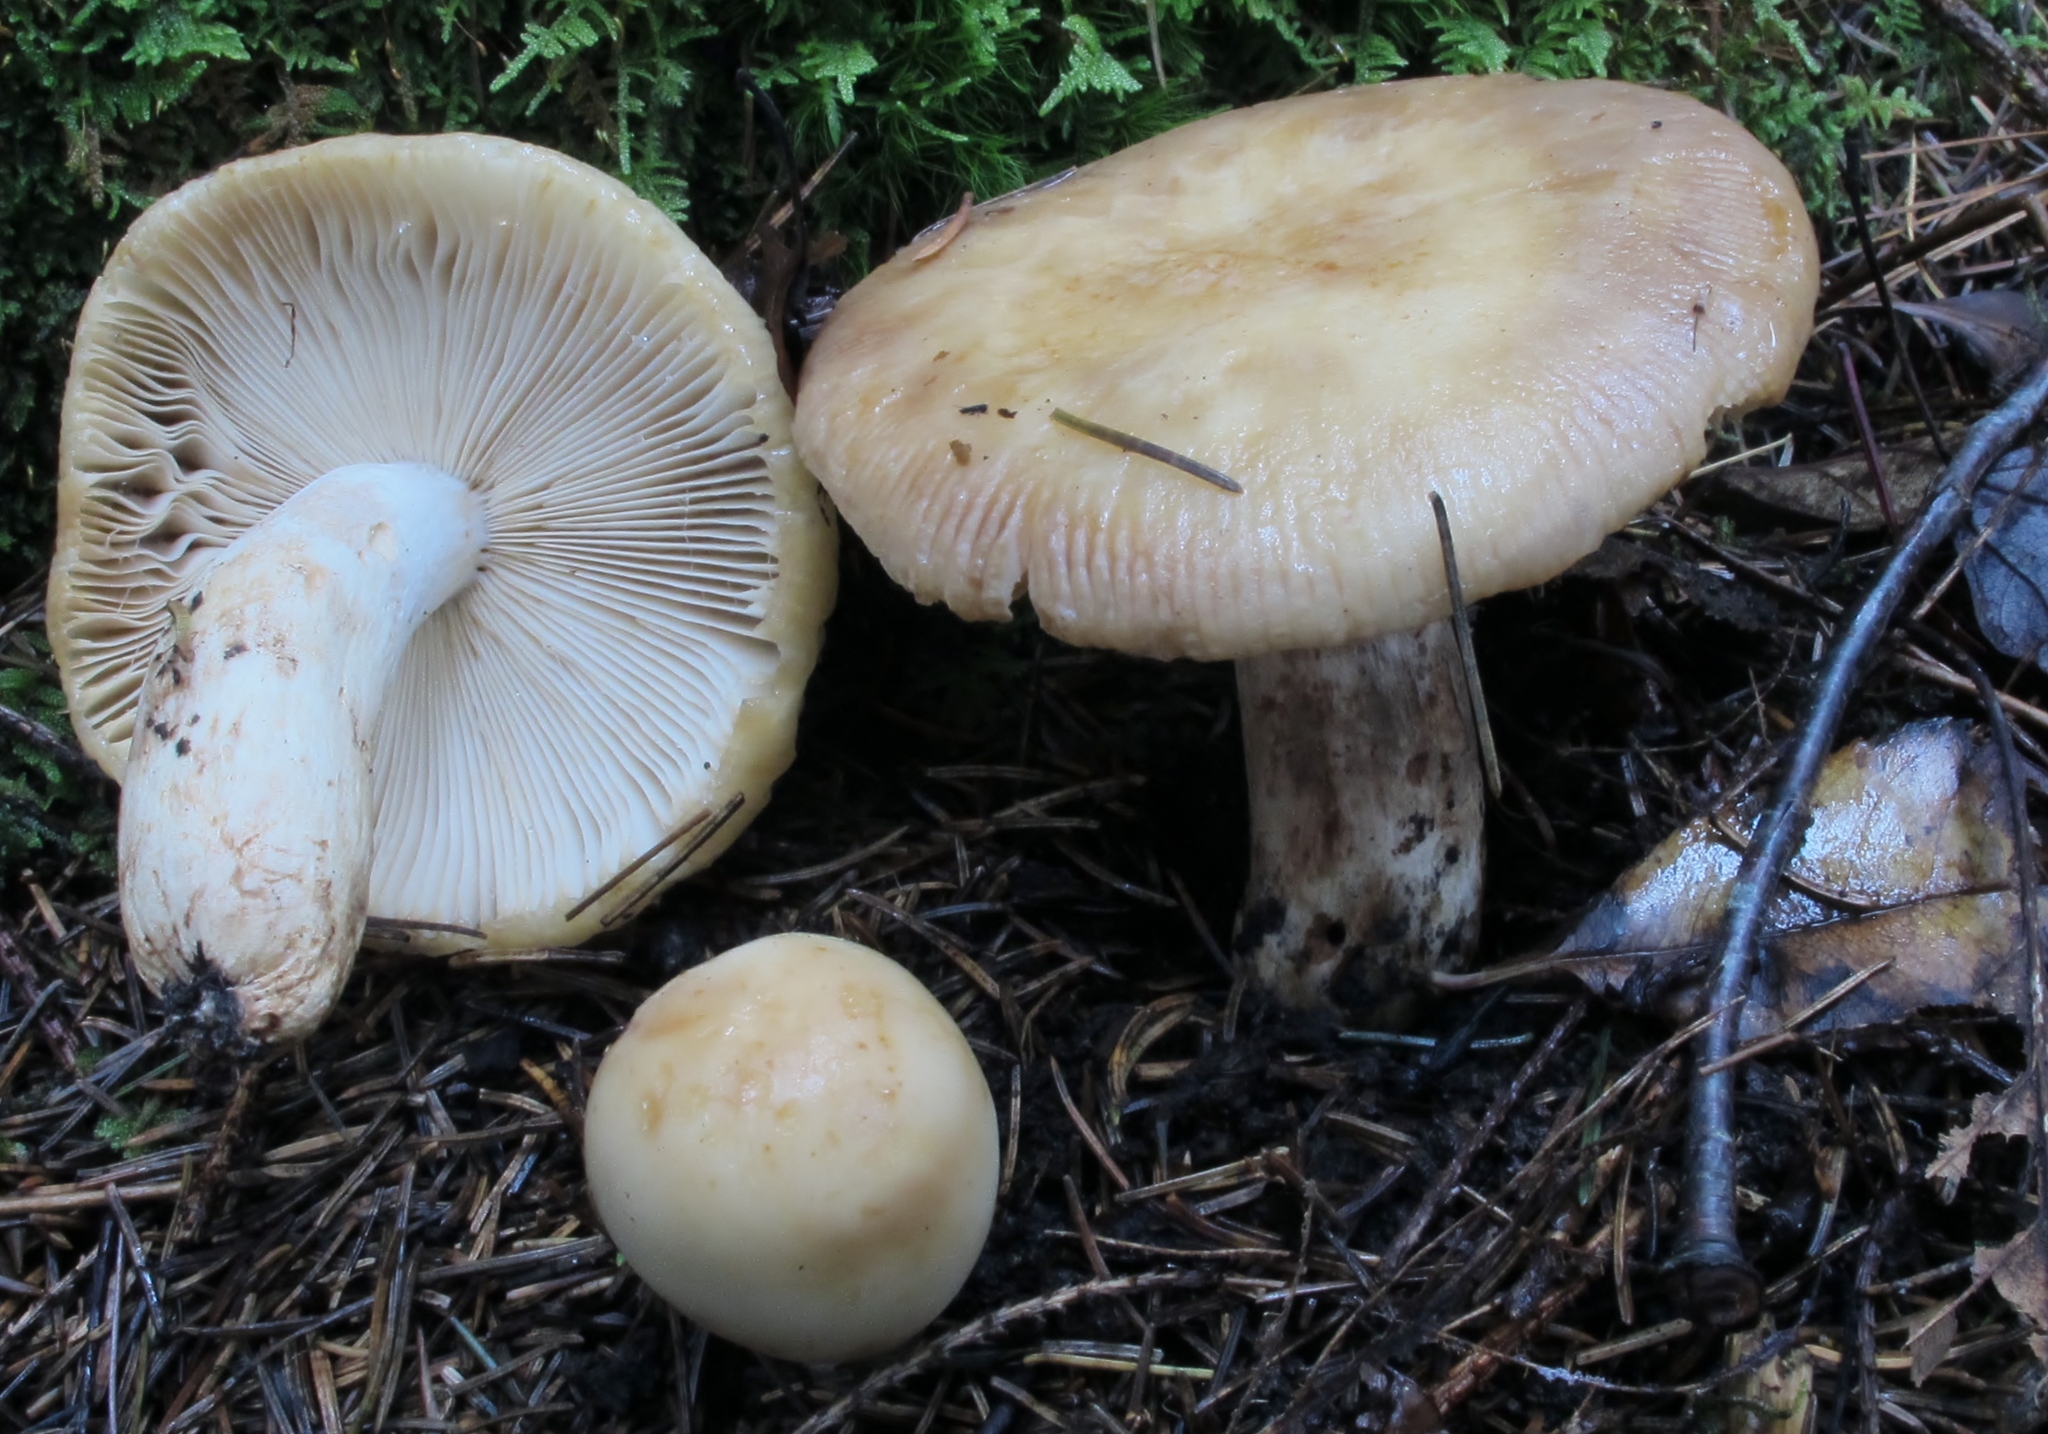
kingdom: Fungi
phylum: Basidiomycota
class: Agaricomycetes
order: Russulales
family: Russulaceae
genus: Russula
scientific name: Russula grata
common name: Bitter almond brittlegill
